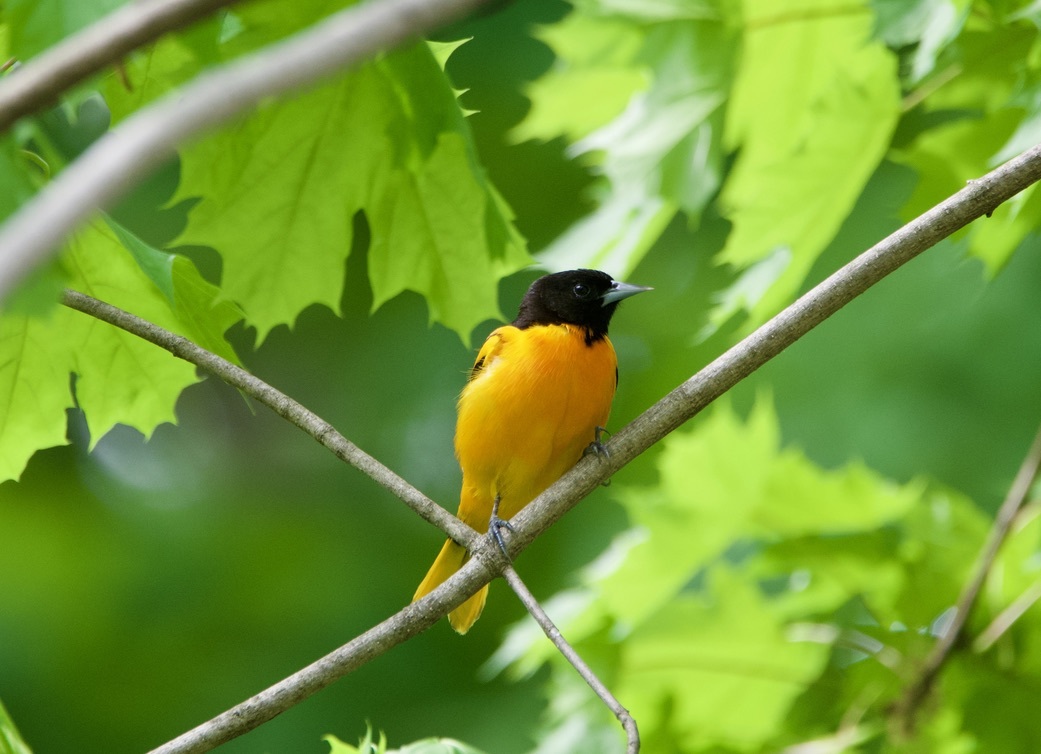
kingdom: Animalia
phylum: Chordata
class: Aves
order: Passeriformes
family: Icteridae
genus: Icterus
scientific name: Icterus galbula
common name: Baltimore oriole
